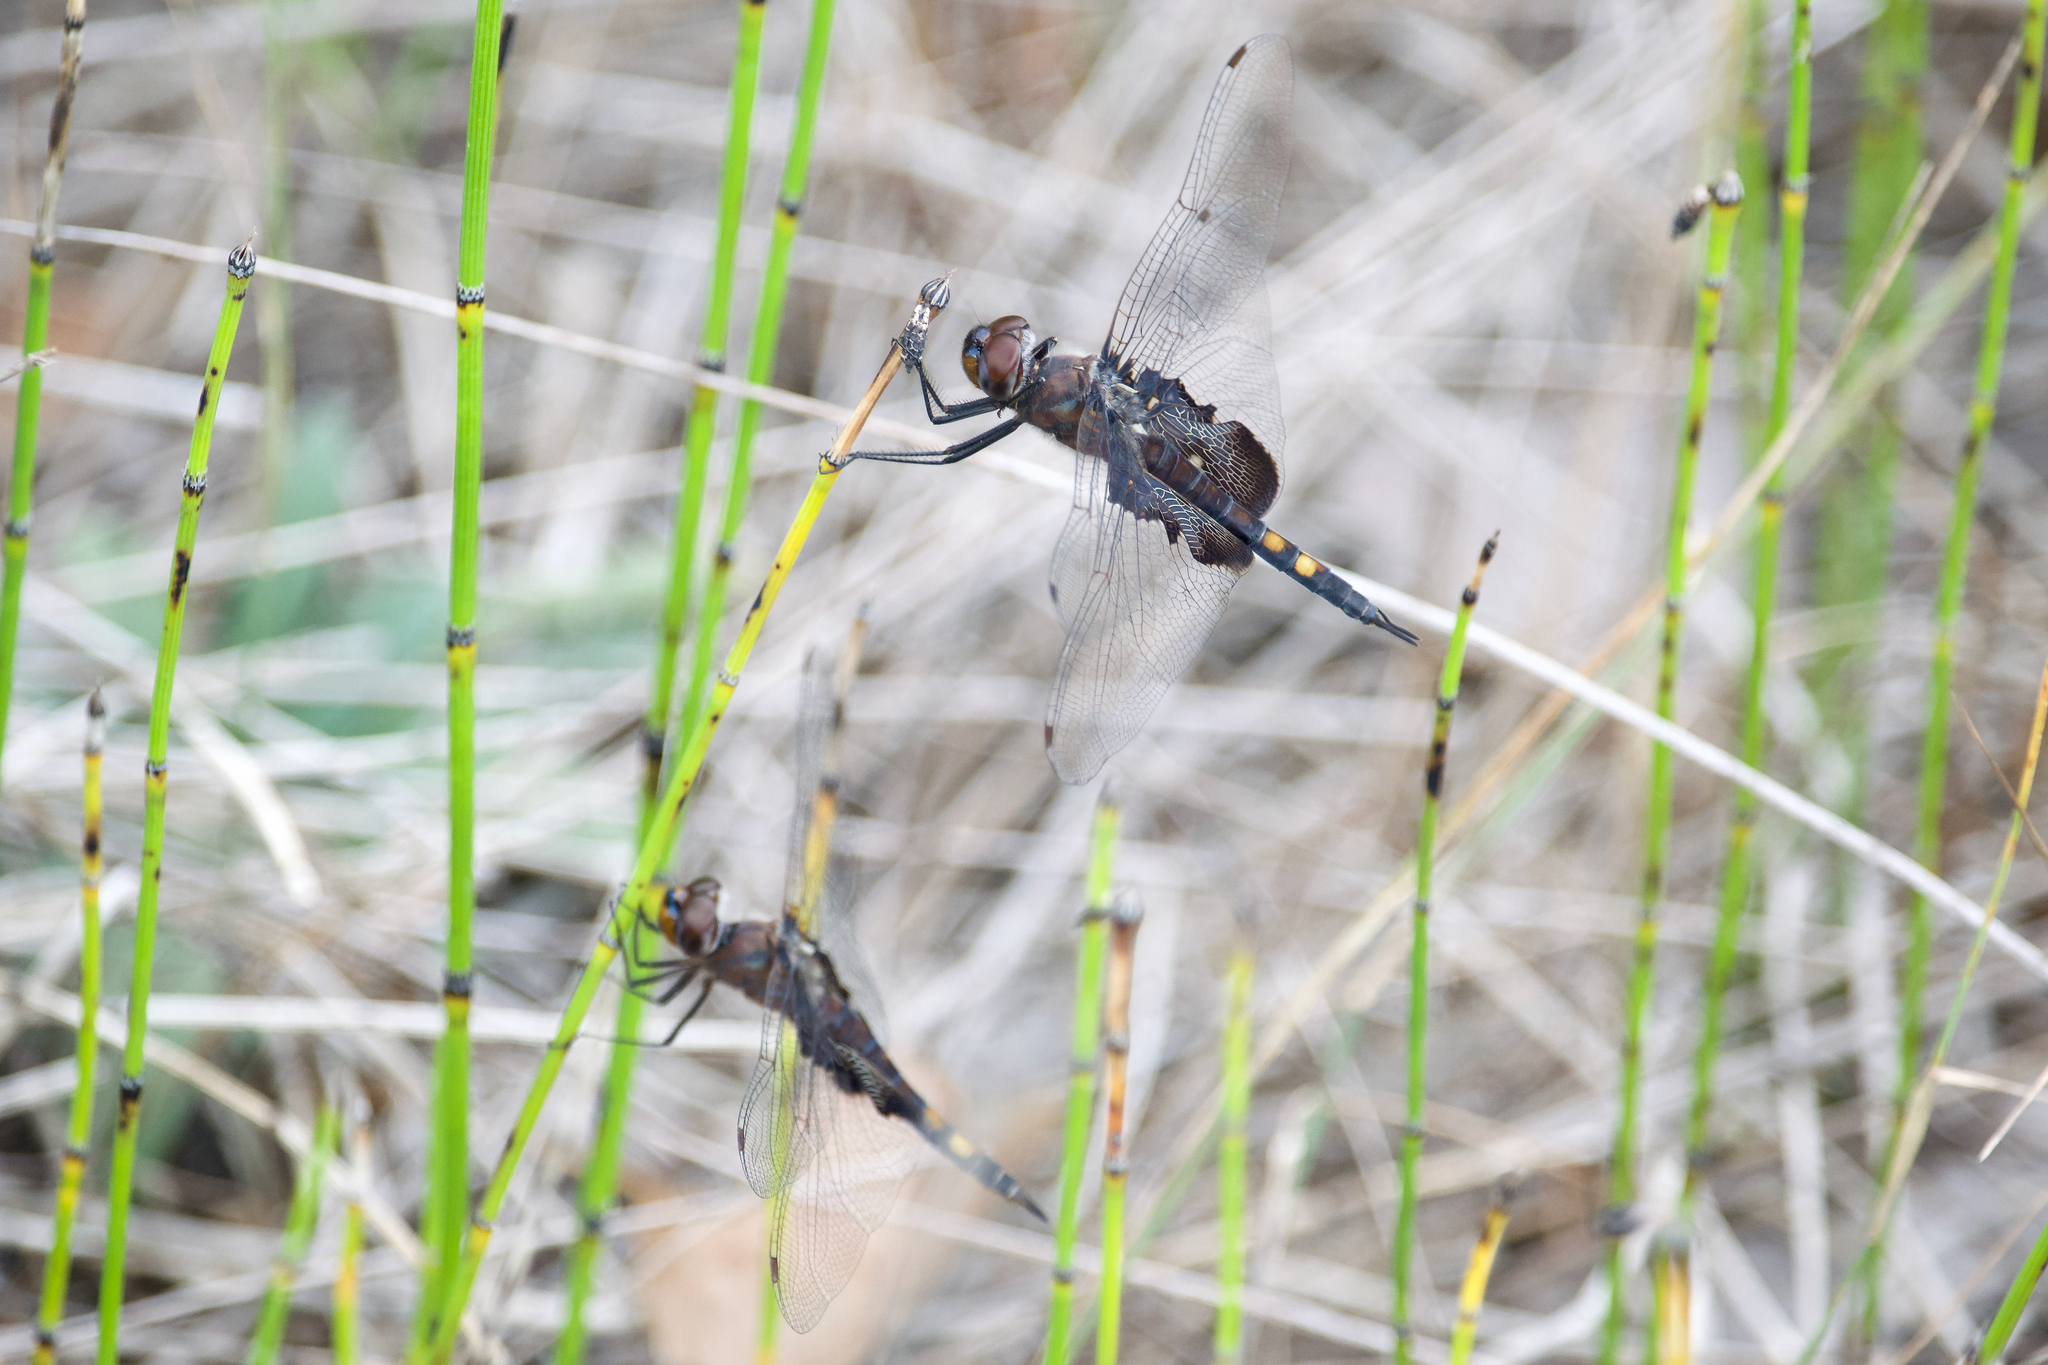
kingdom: Animalia
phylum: Arthropoda
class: Insecta
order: Odonata
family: Libellulidae
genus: Tramea
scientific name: Tramea lacerata
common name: Black saddlebags
